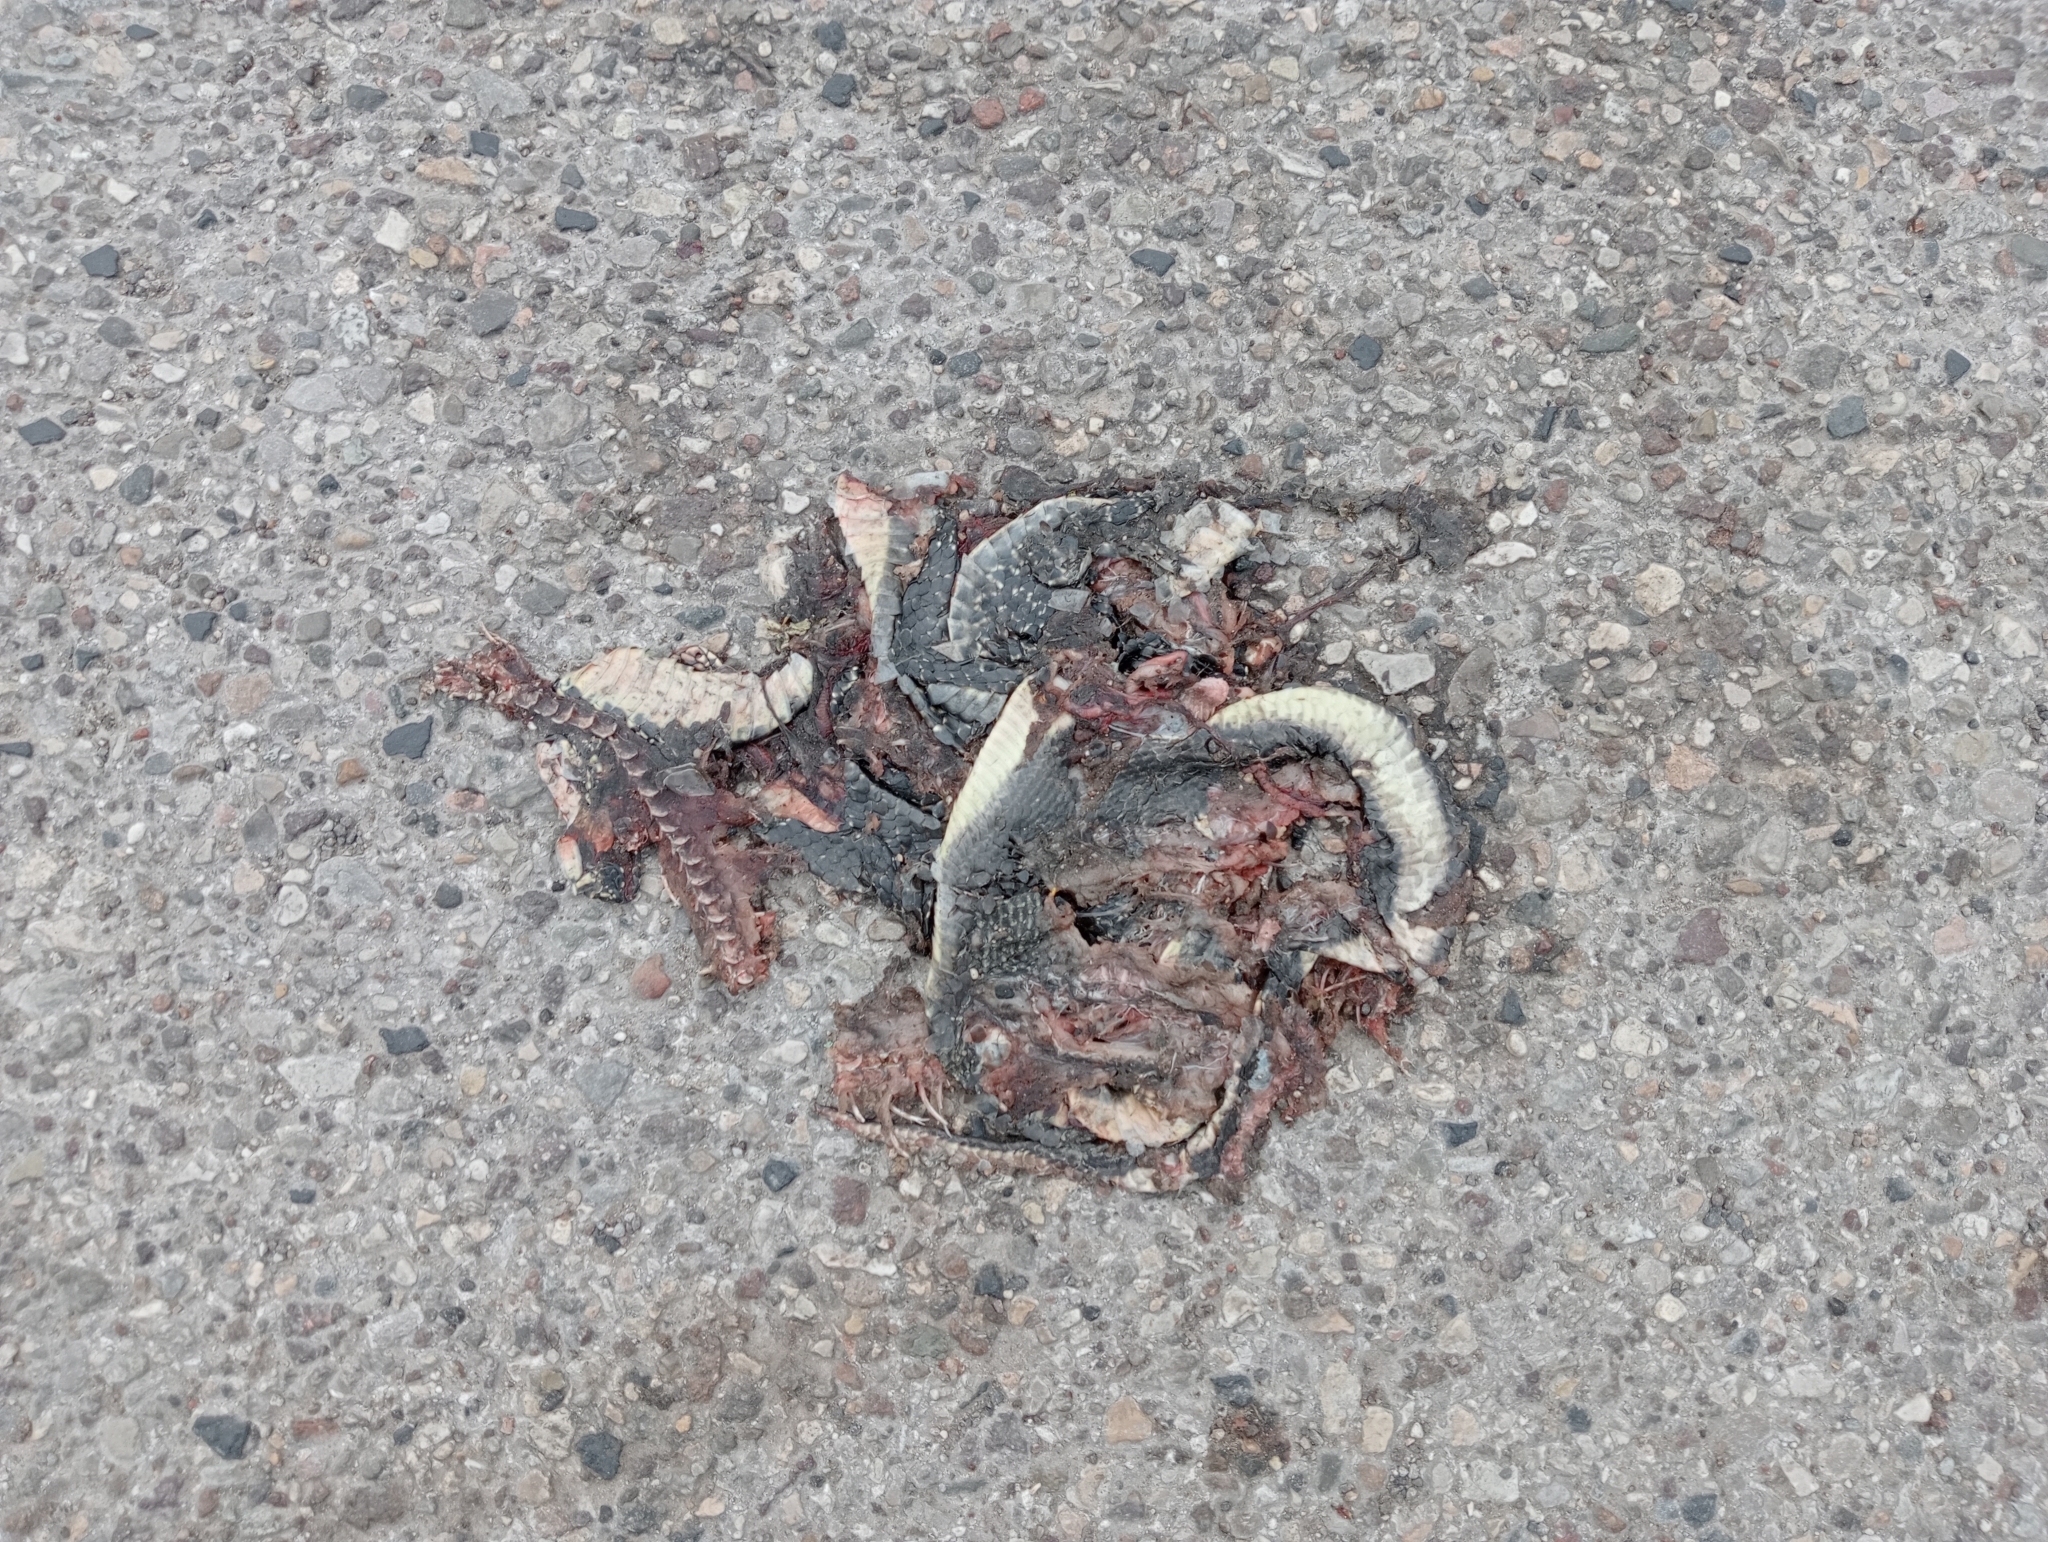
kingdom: Animalia
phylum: Chordata
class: Squamata
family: Colubridae
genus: Hierophis
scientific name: Hierophis viridiflavus
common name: Green whip snake
